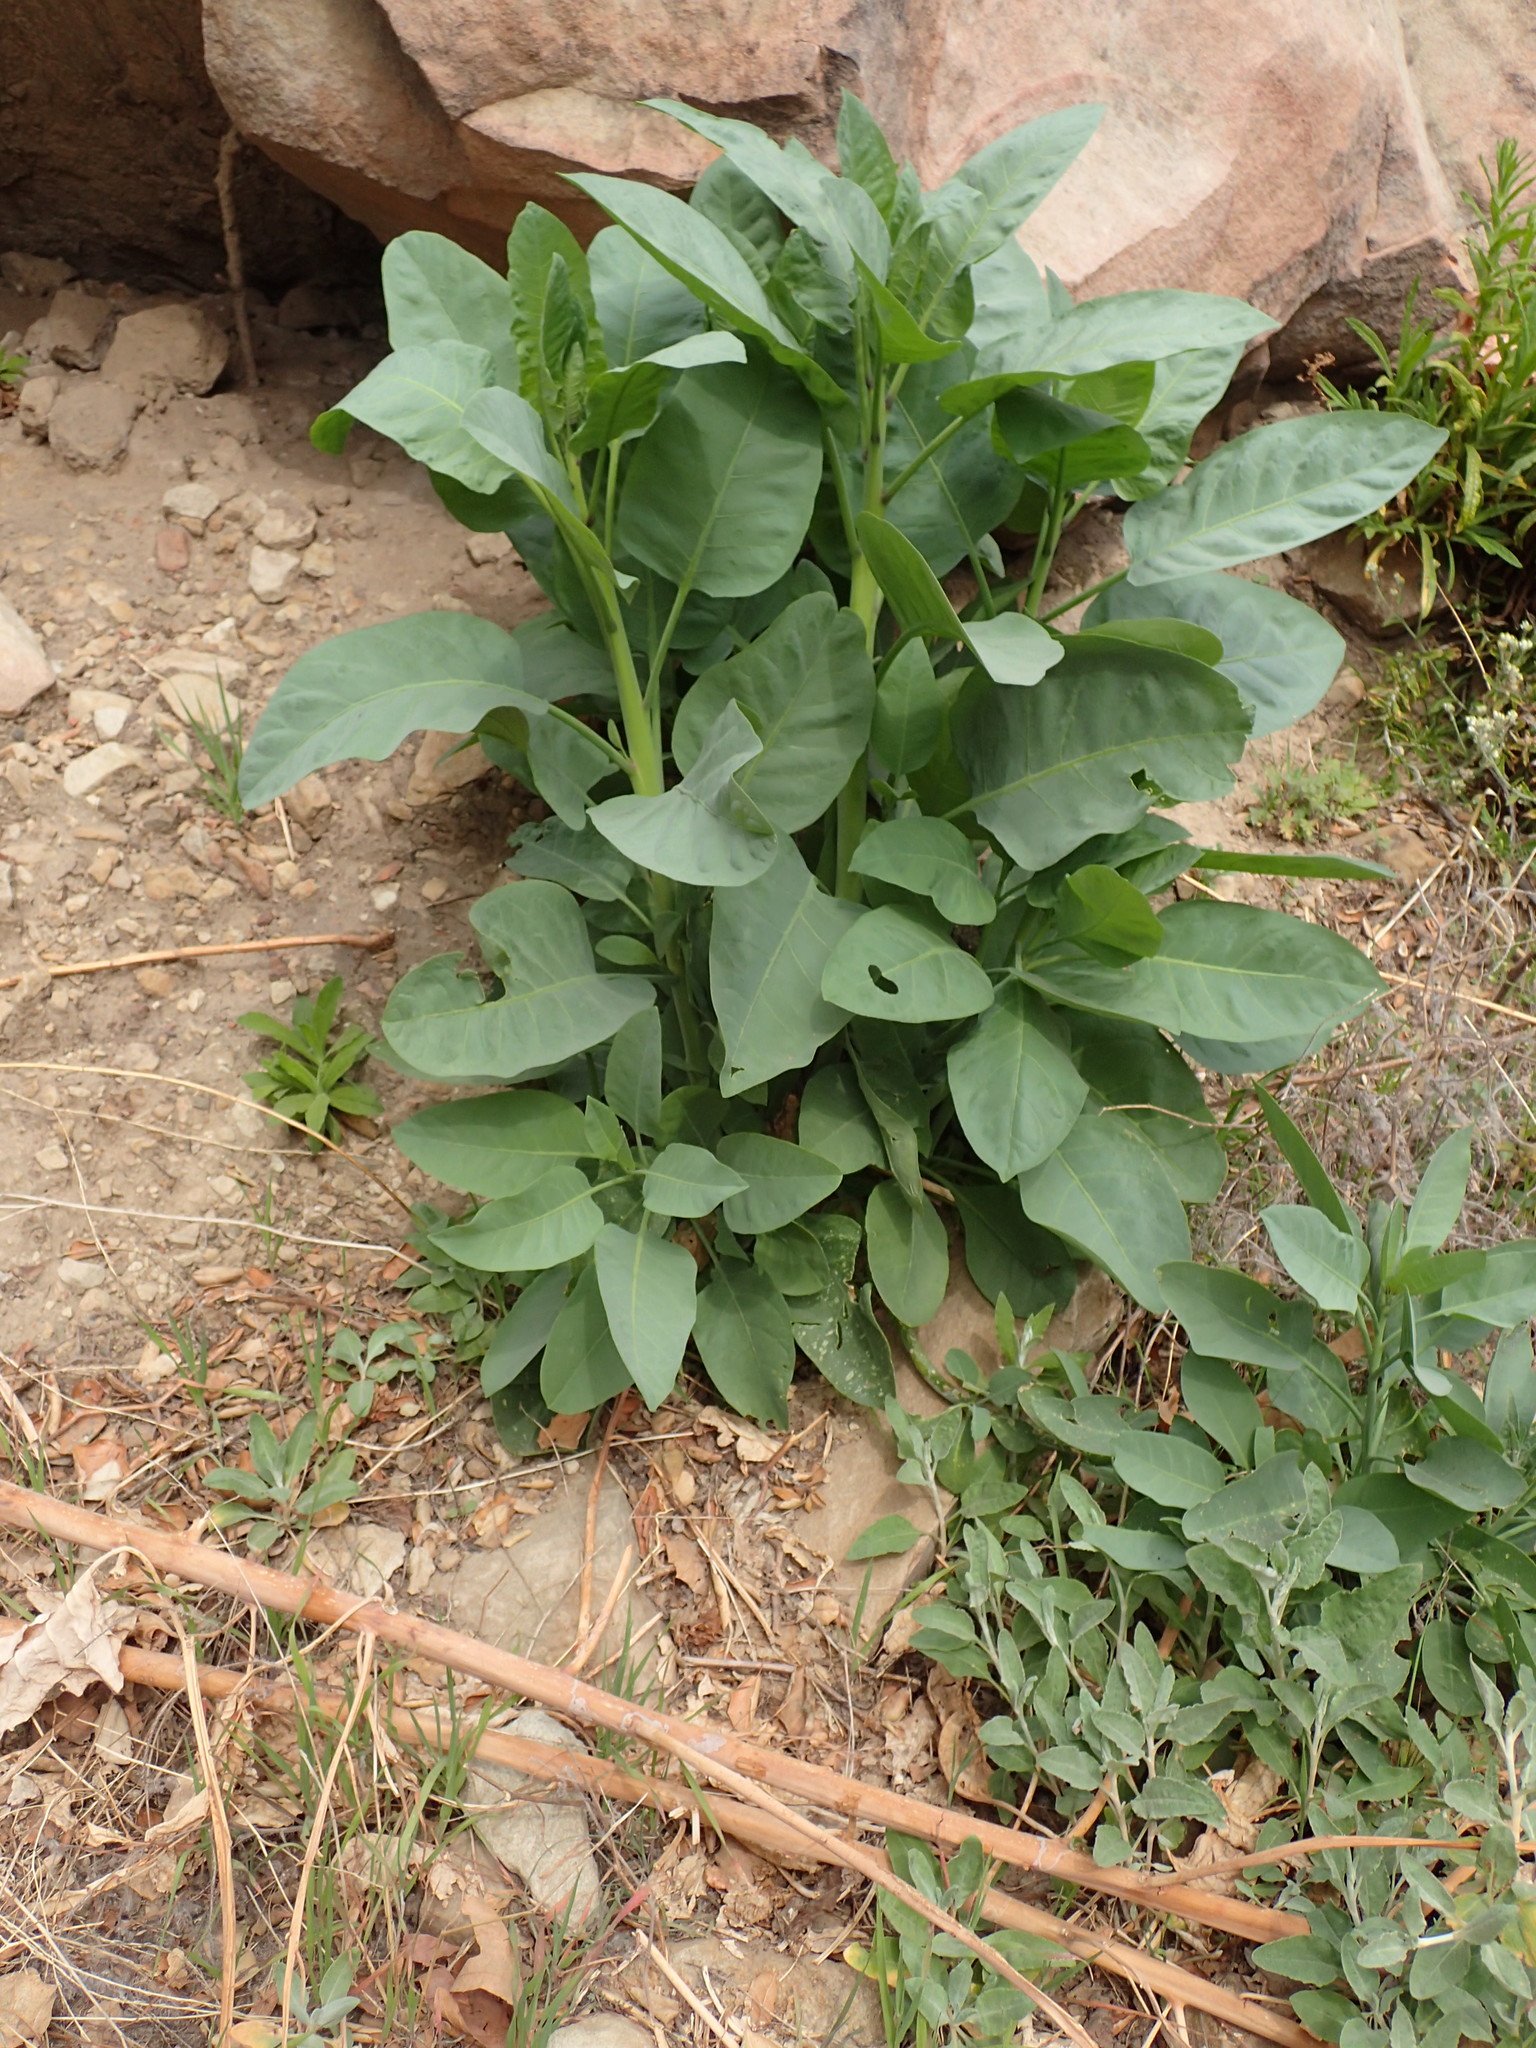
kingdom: Plantae
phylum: Tracheophyta
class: Magnoliopsida
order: Solanales
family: Solanaceae
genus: Nicotiana
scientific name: Nicotiana glauca
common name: Tree tobacco
